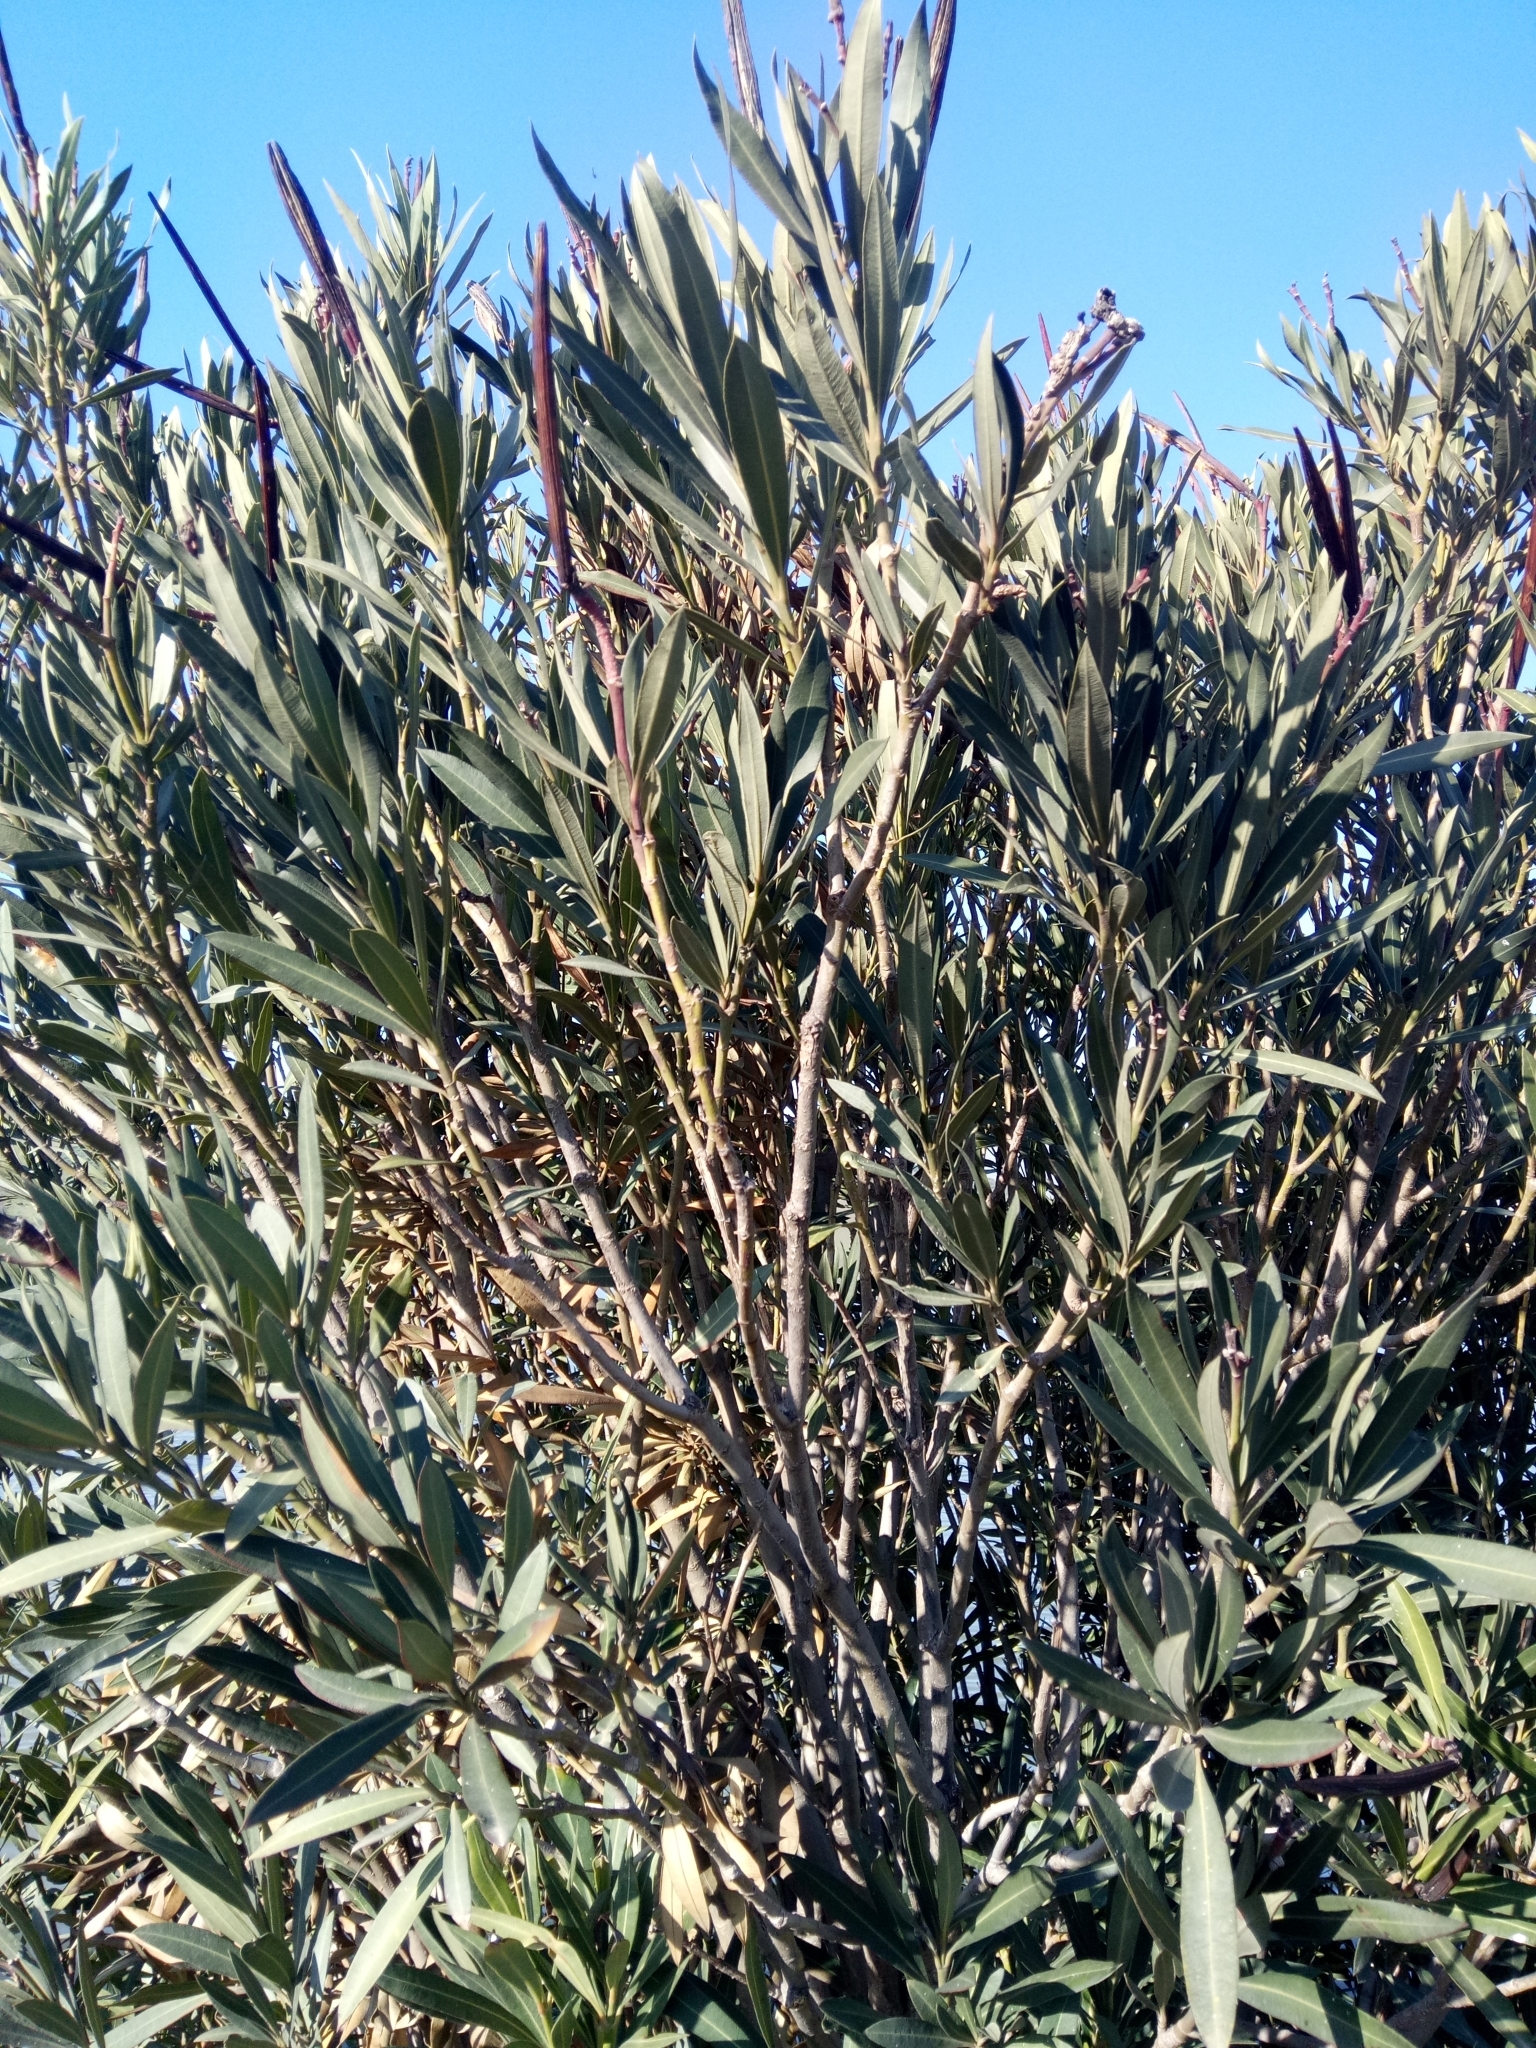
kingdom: Plantae
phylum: Tracheophyta
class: Magnoliopsida
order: Gentianales
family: Apocynaceae
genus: Nerium
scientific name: Nerium oleander
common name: Oleander
